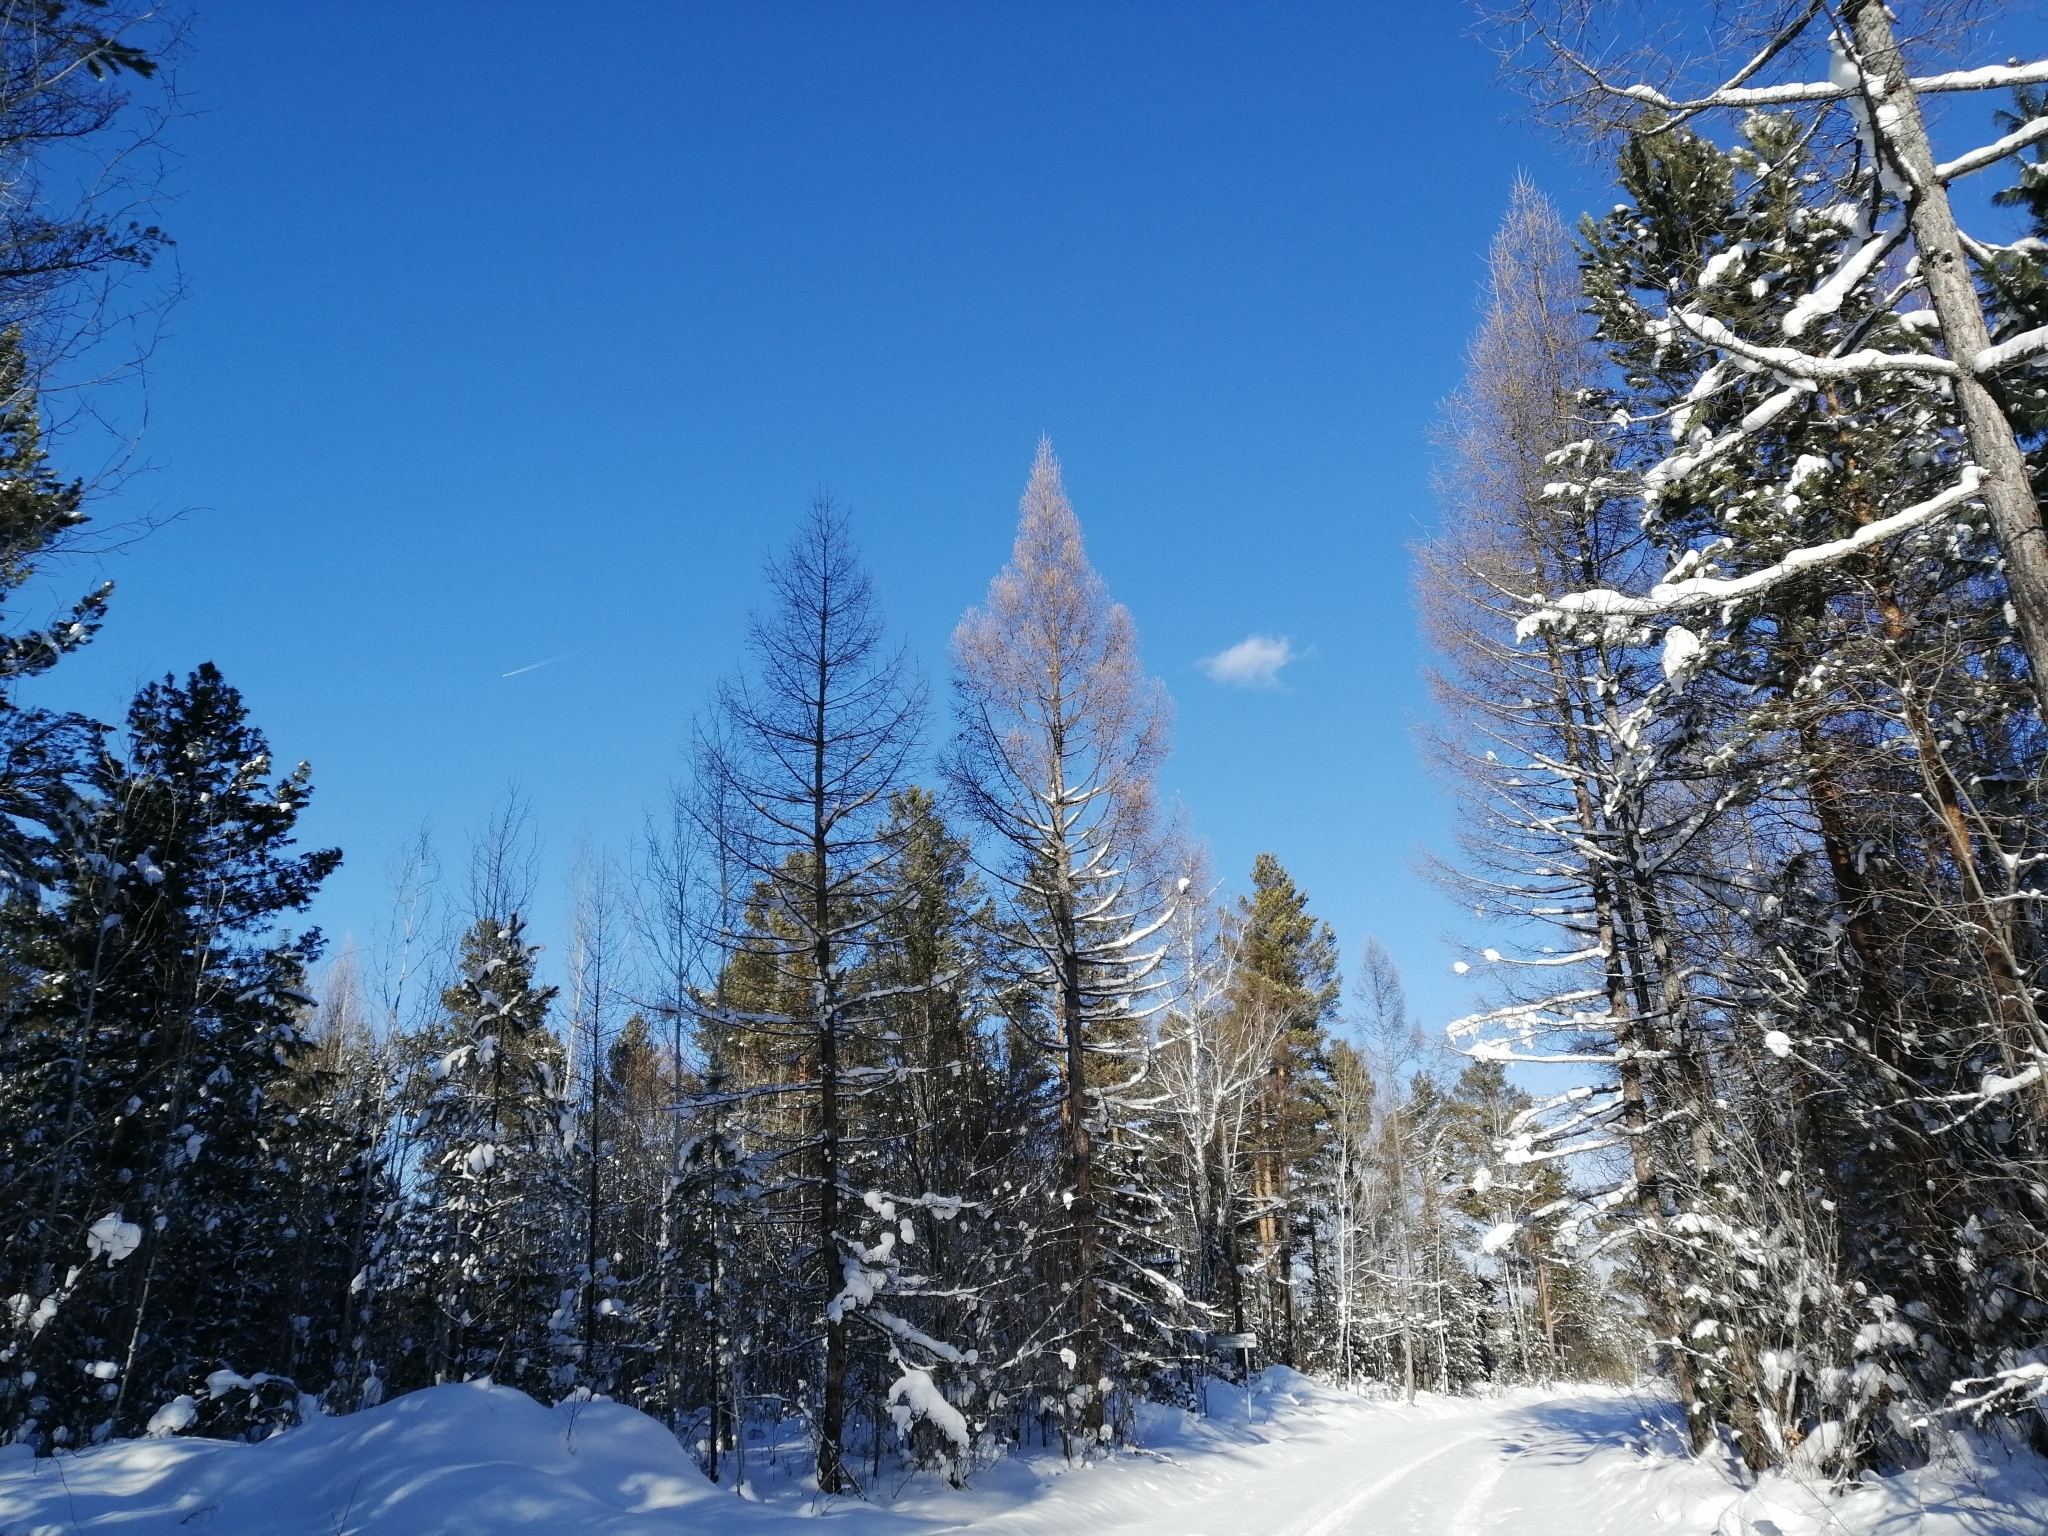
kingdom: Plantae
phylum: Tracheophyta
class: Pinopsida
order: Pinales
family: Pinaceae
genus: Larix
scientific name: Larix sibirica
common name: Siberian larch
